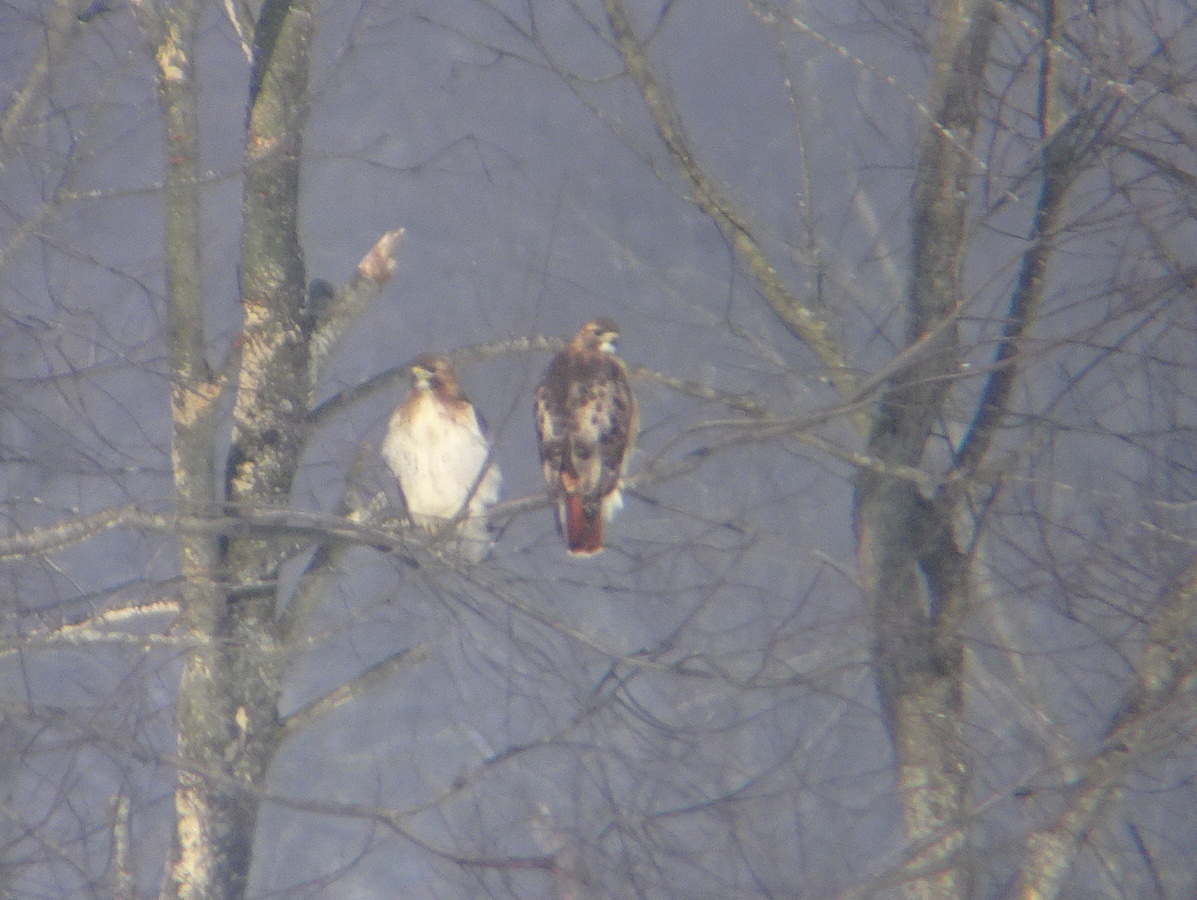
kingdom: Animalia
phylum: Chordata
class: Aves
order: Accipitriformes
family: Accipitridae
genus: Buteo
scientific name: Buteo jamaicensis
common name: Red-tailed hawk
